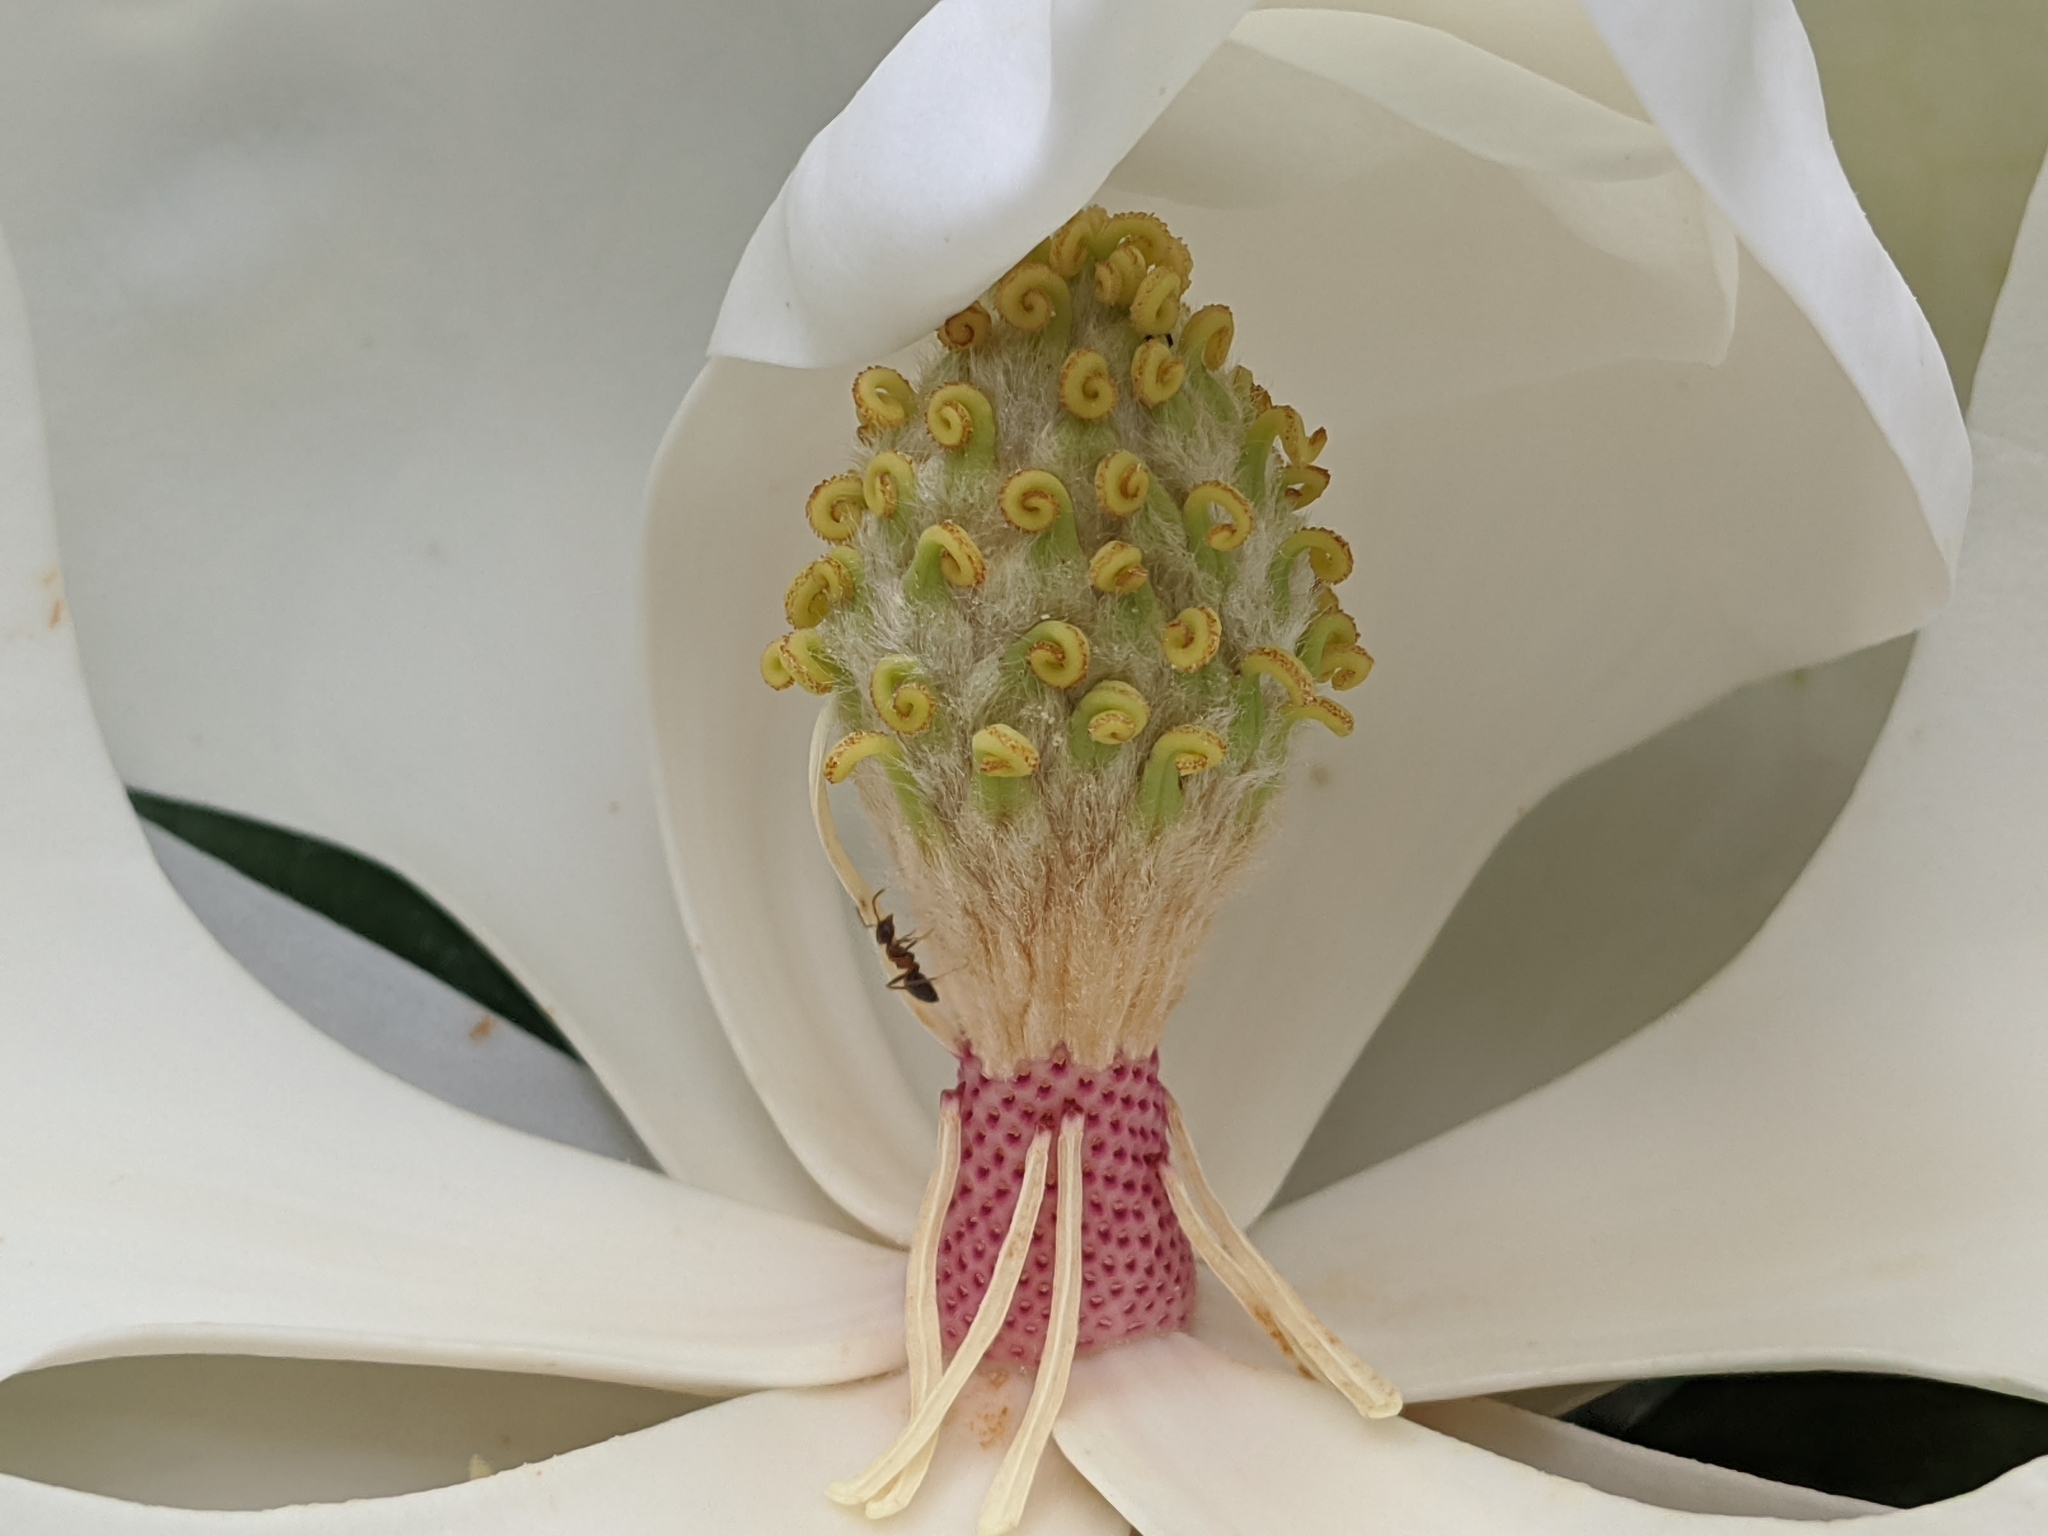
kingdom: Animalia
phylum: Arthropoda
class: Insecta
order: Hymenoptera
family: Formicidae
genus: Lasius
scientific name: Lasius emarginatus
